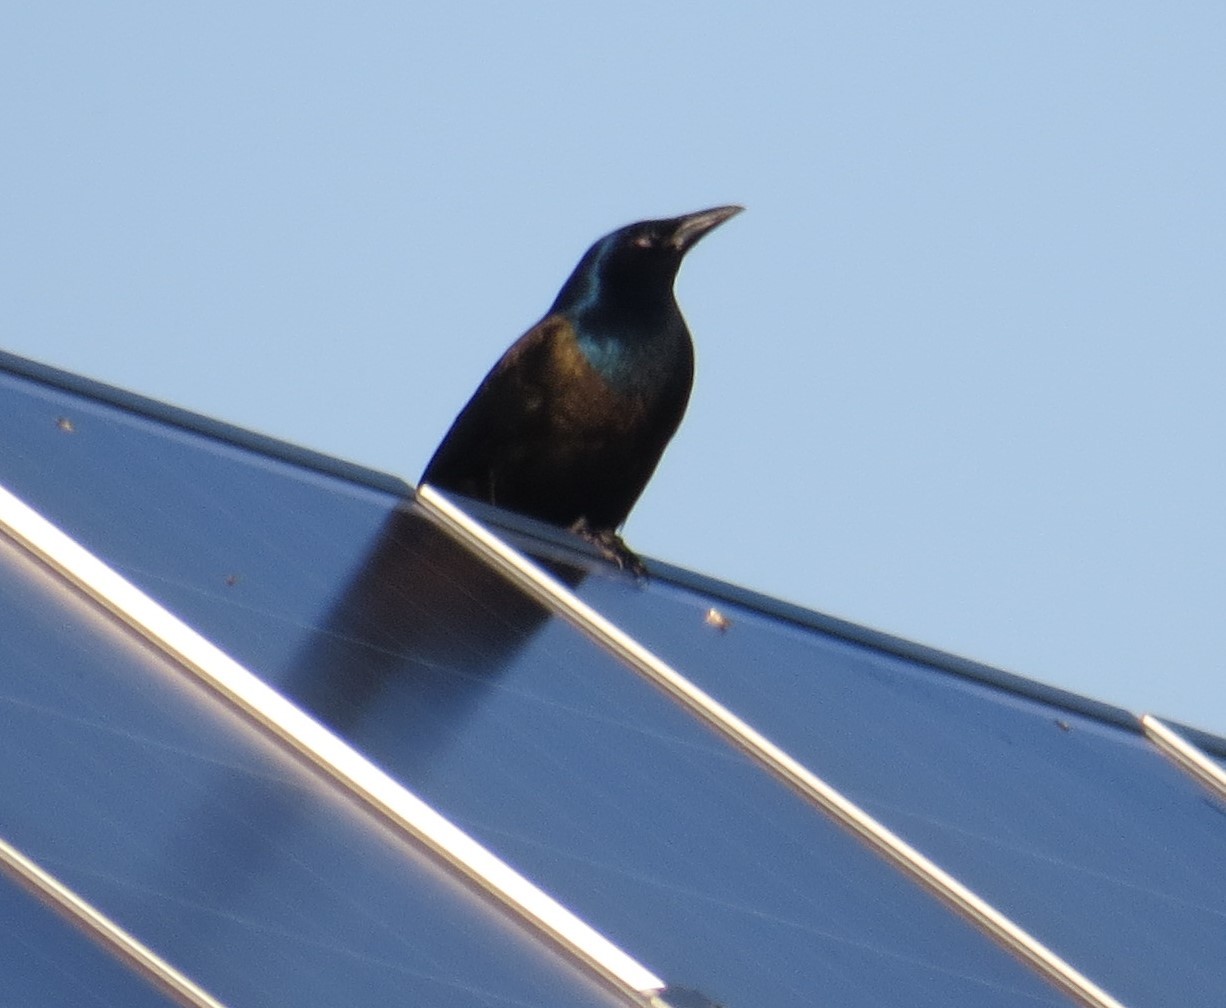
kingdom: Animalia
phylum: Chordata
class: Aves
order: Passeriformes
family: Icteridae
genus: Quiscalus
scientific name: Quiscalus quiscula
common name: Common grackle
